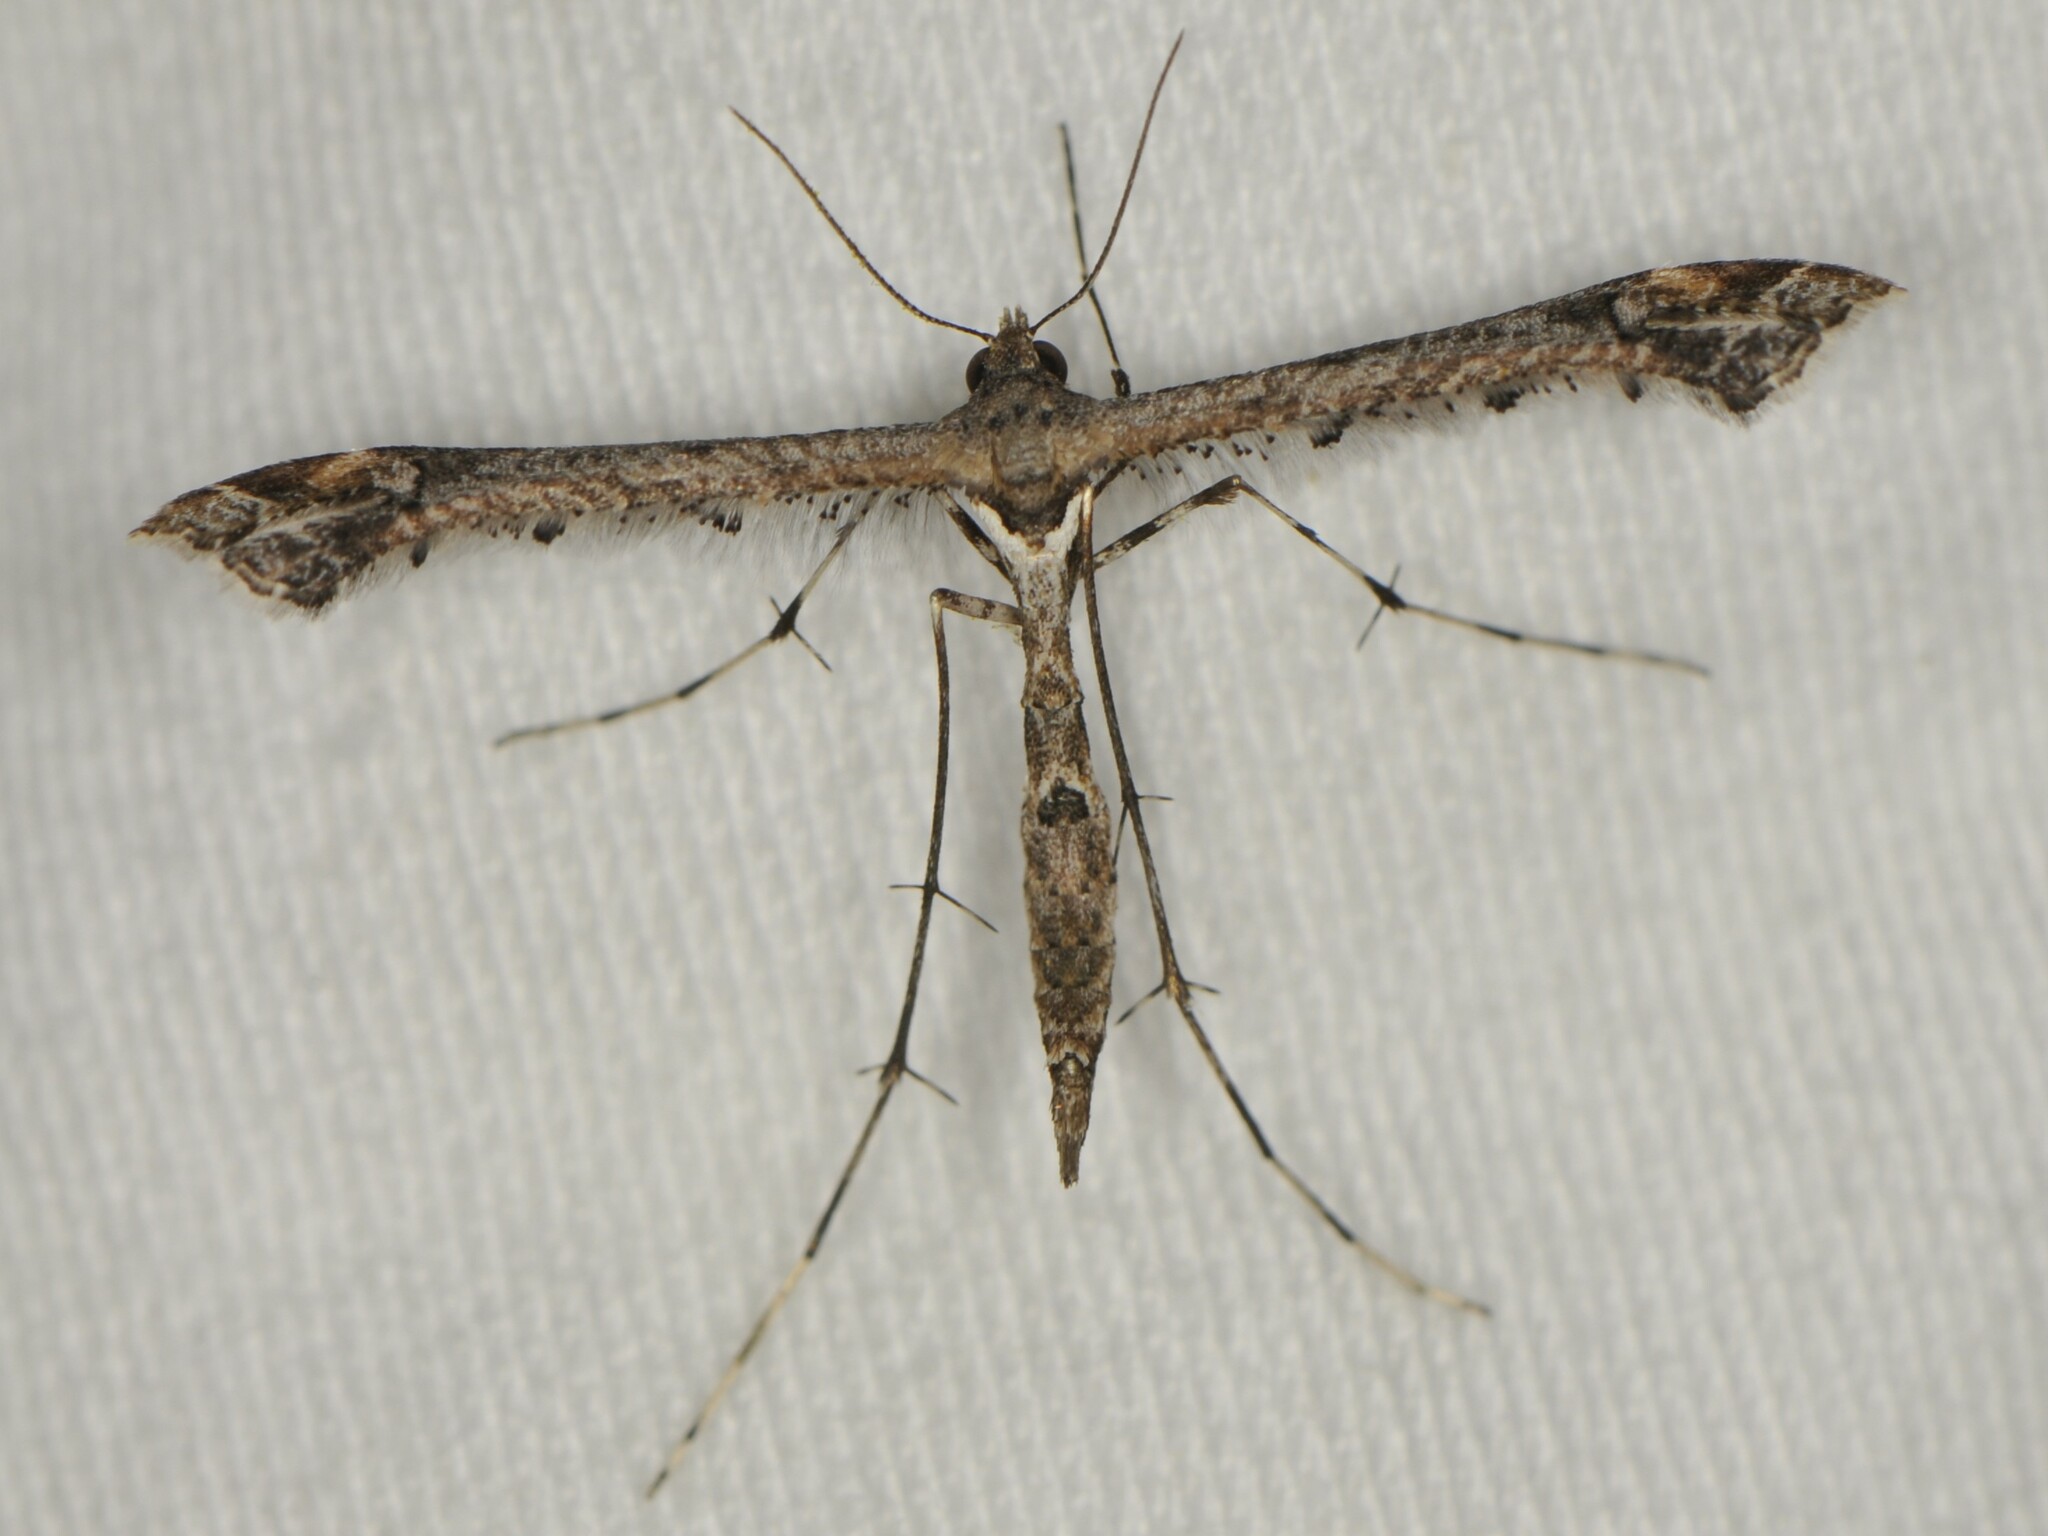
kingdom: Animalia
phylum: Arthropoda
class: Insecta
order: Lepidoptera
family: Pterophoridae
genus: Anstenoptilia
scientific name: Anstenoptilia marmarodactyla
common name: Moth
